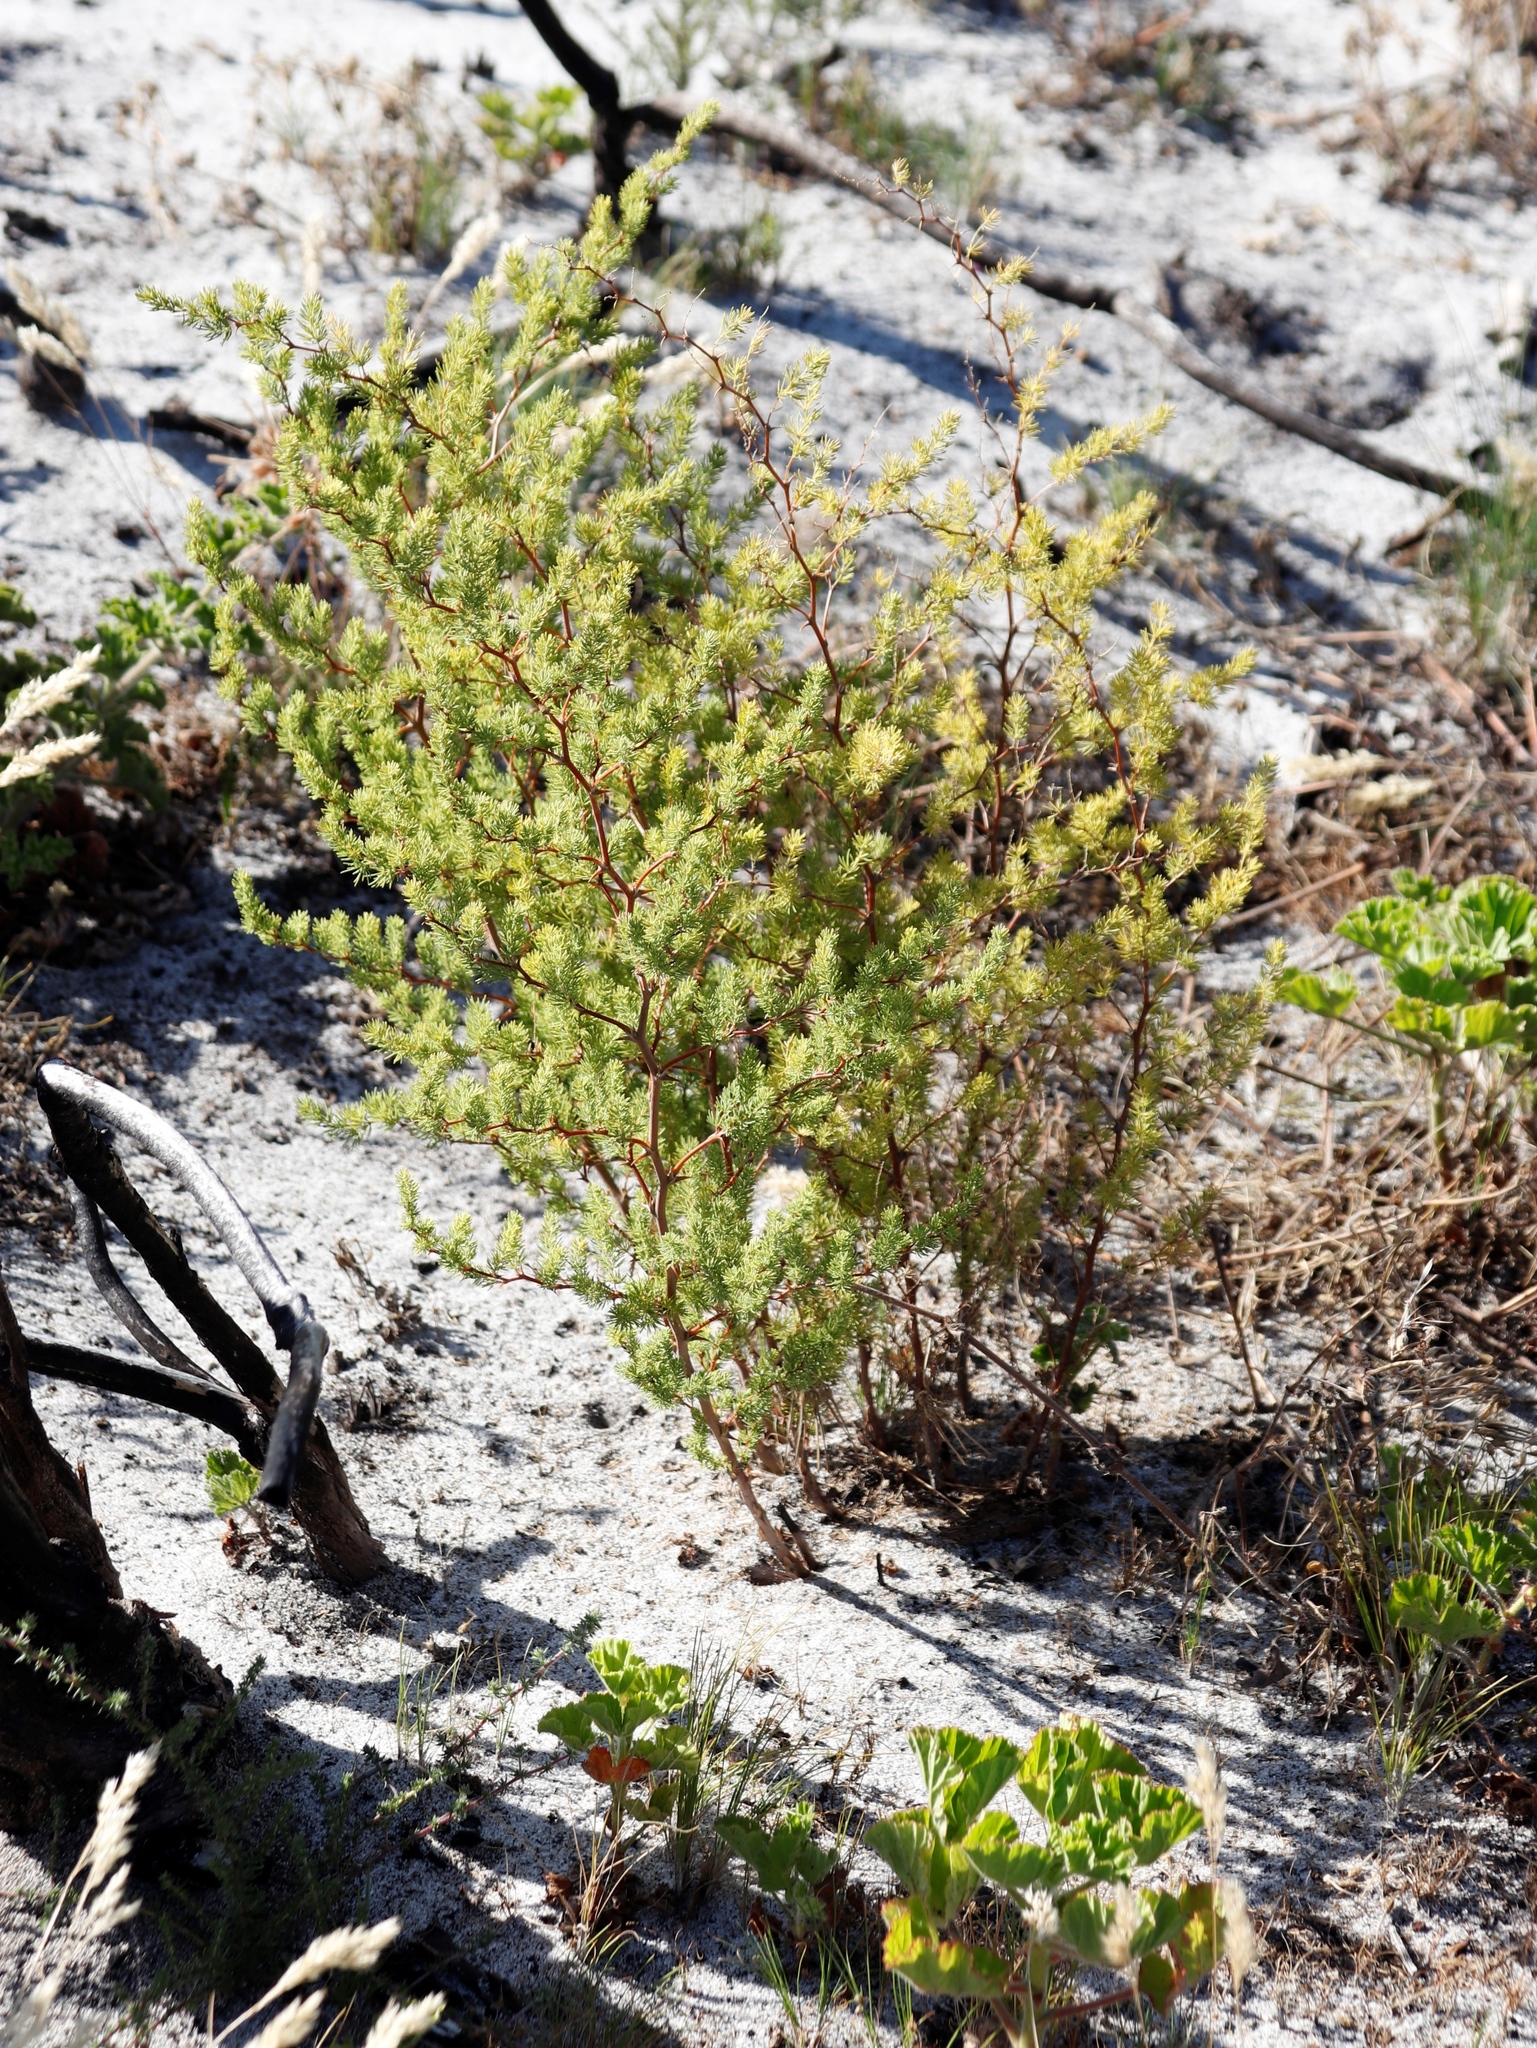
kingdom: Plantae
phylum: Tracheophyta
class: Liliopsida
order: Asparagales
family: Asparagaceae
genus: Asparagus
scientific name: Asparagus rubicundus
